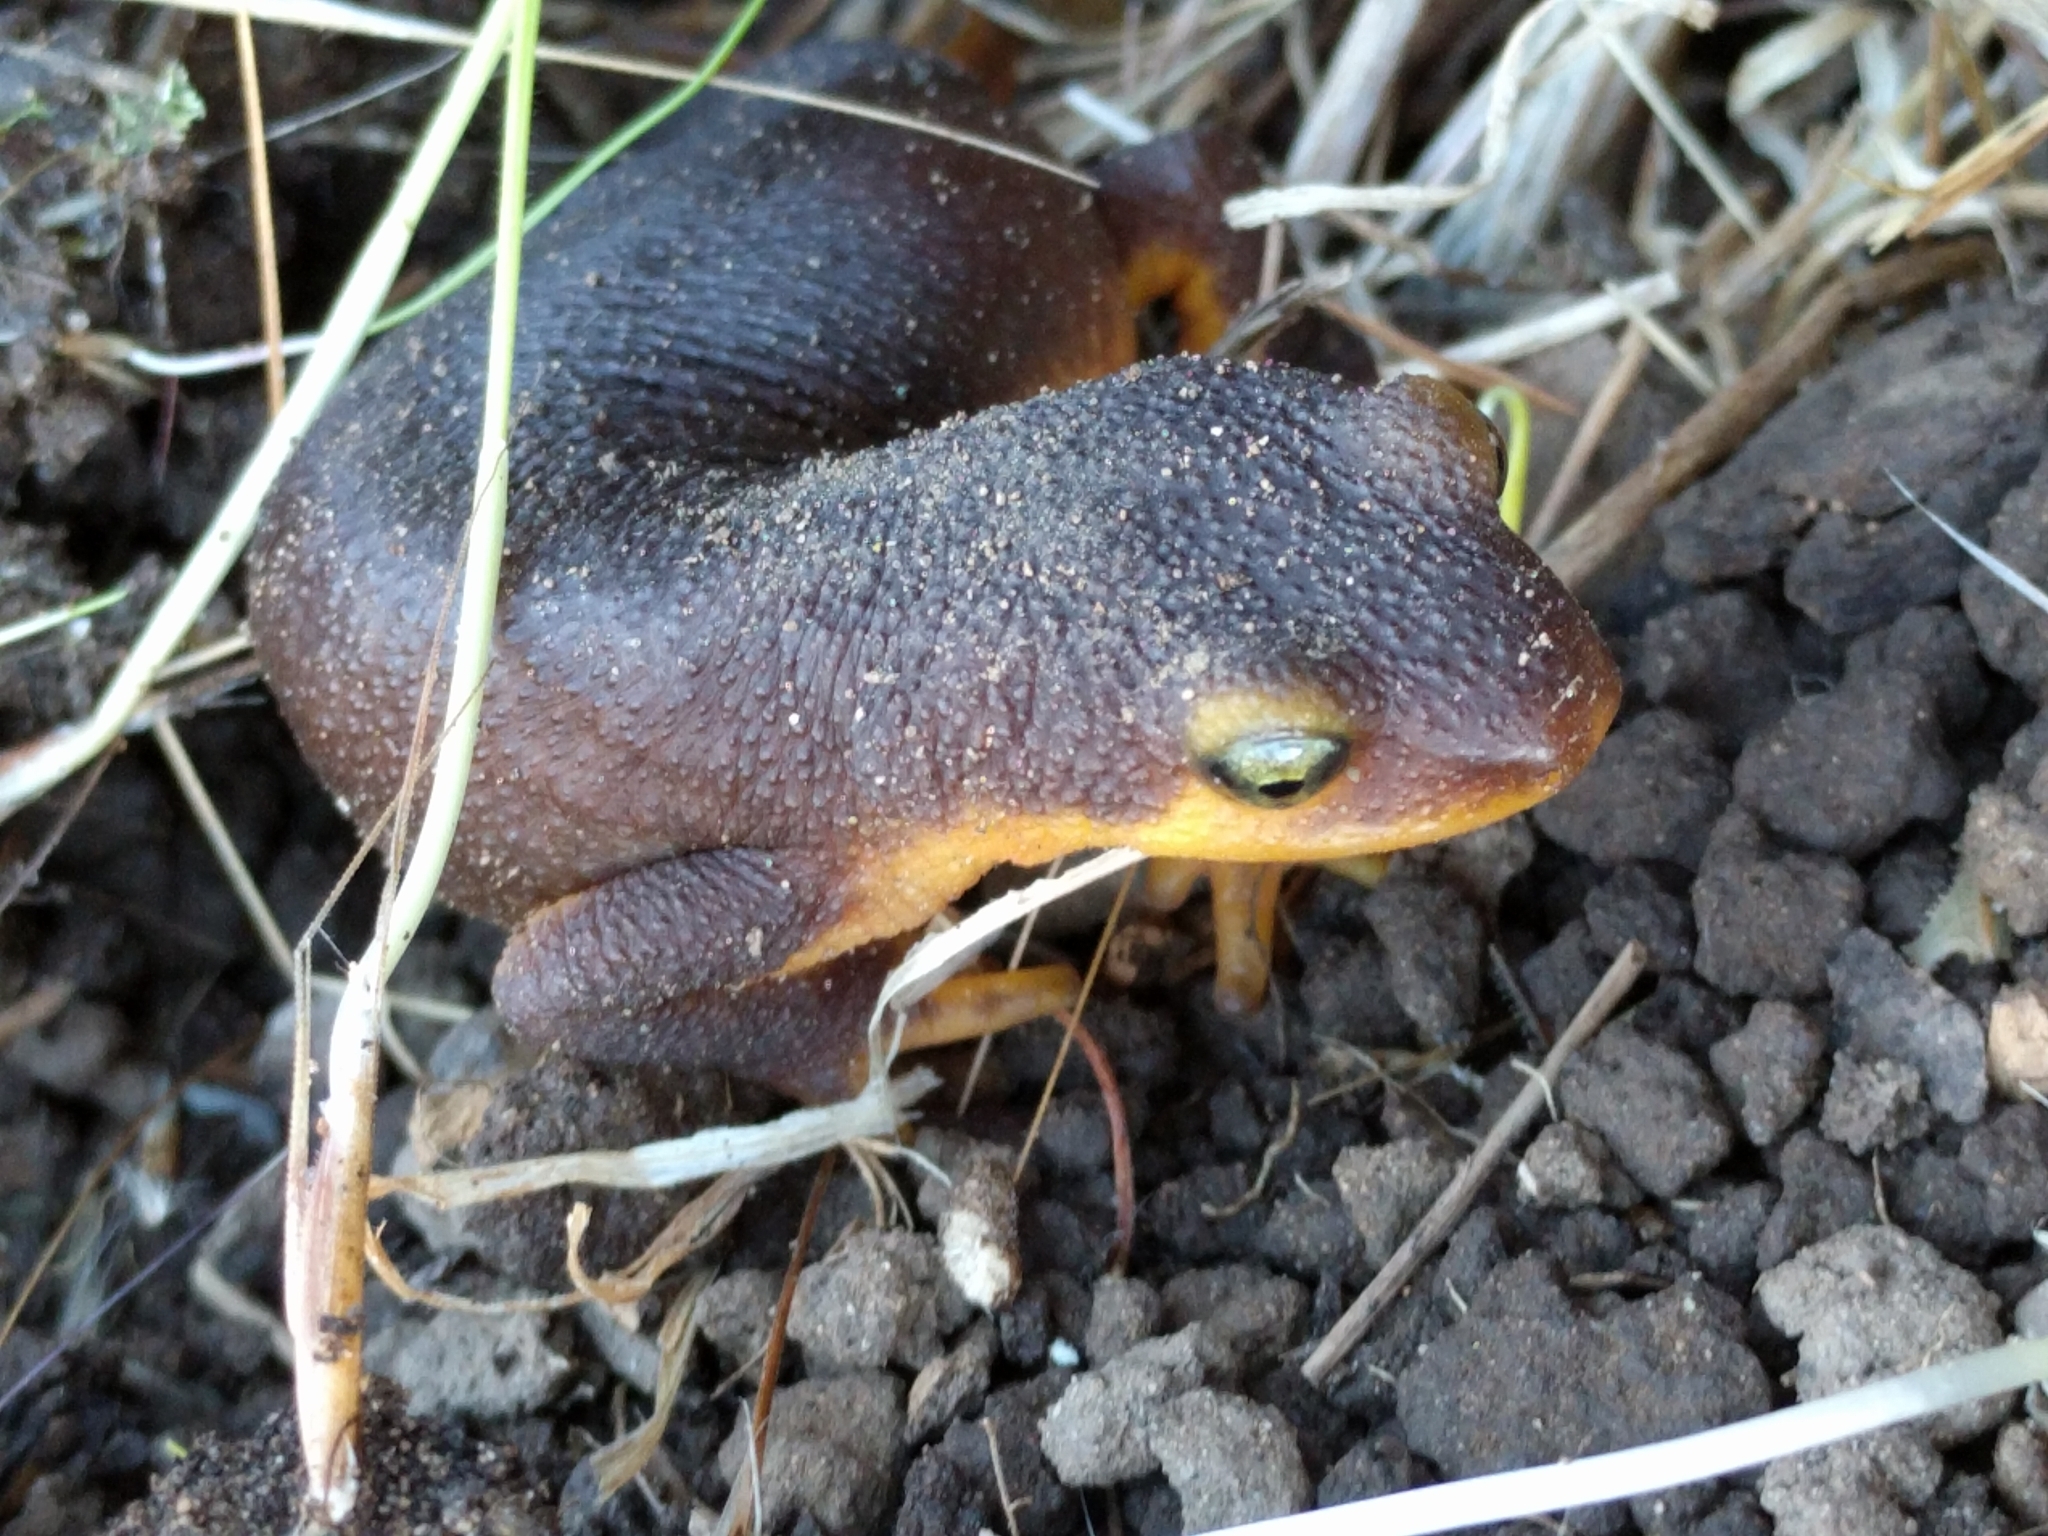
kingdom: Animalia
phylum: Chordata
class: Amphibia
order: Caudata
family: Salamandridae
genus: Taricha
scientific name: Taricha torosa
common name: California newt
